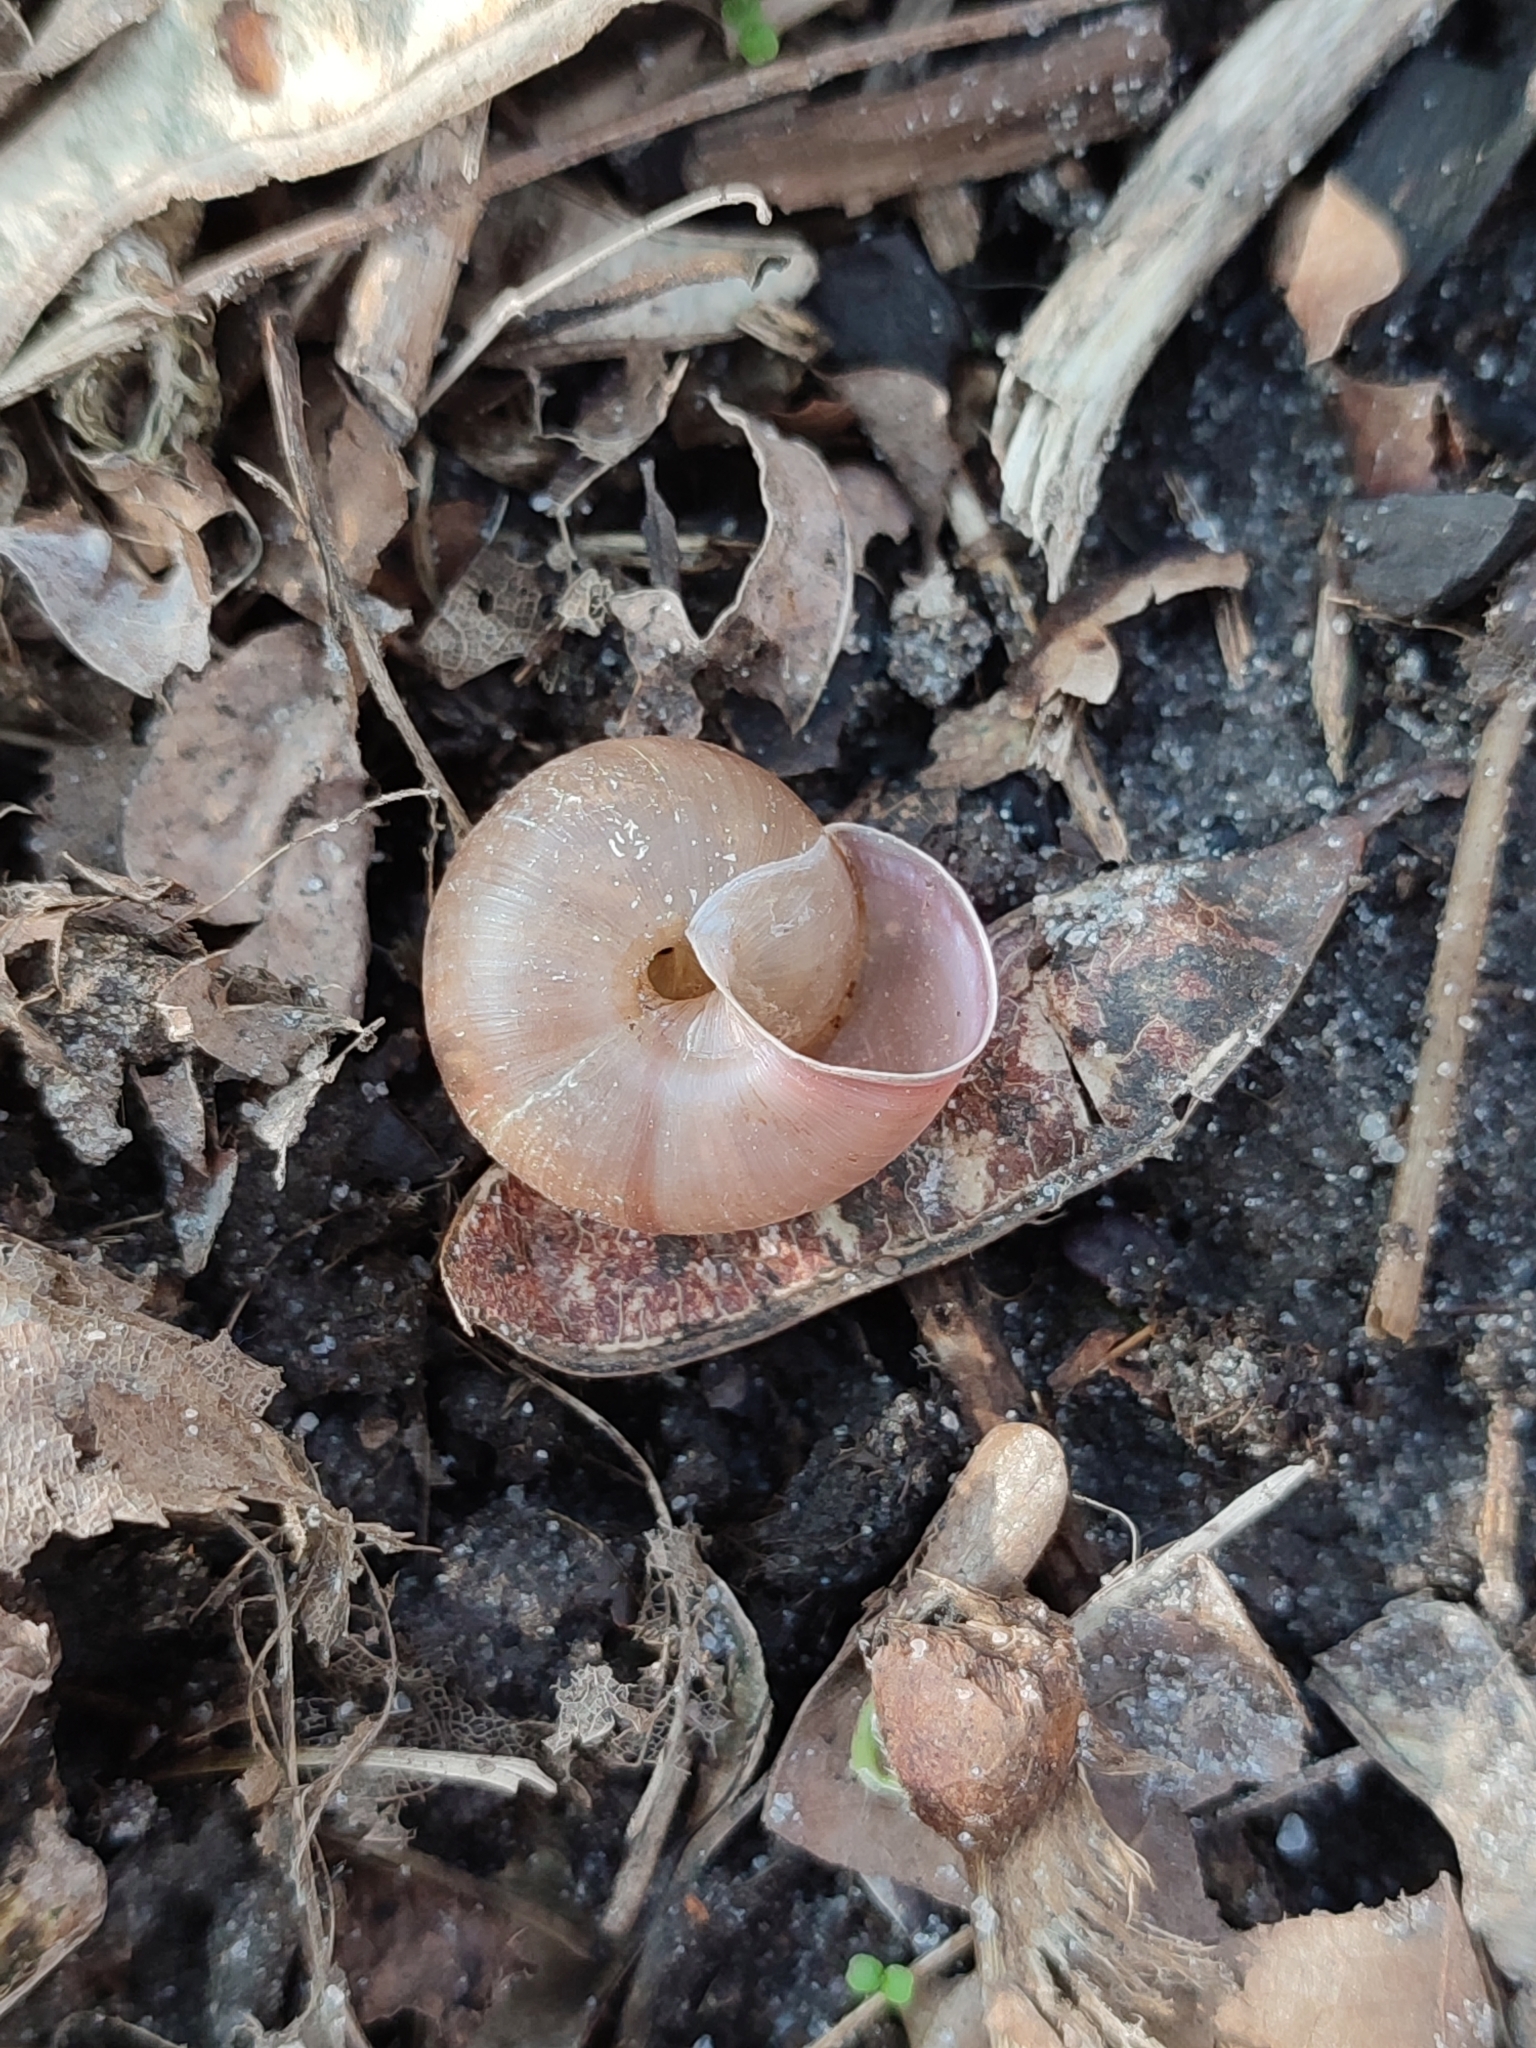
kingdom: Animalia
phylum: Mollusca
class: Gastropoda
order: Stylommatophora
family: Camaenidae
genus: Fruticicola
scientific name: Fruticicola fruticum
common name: Bush snail
